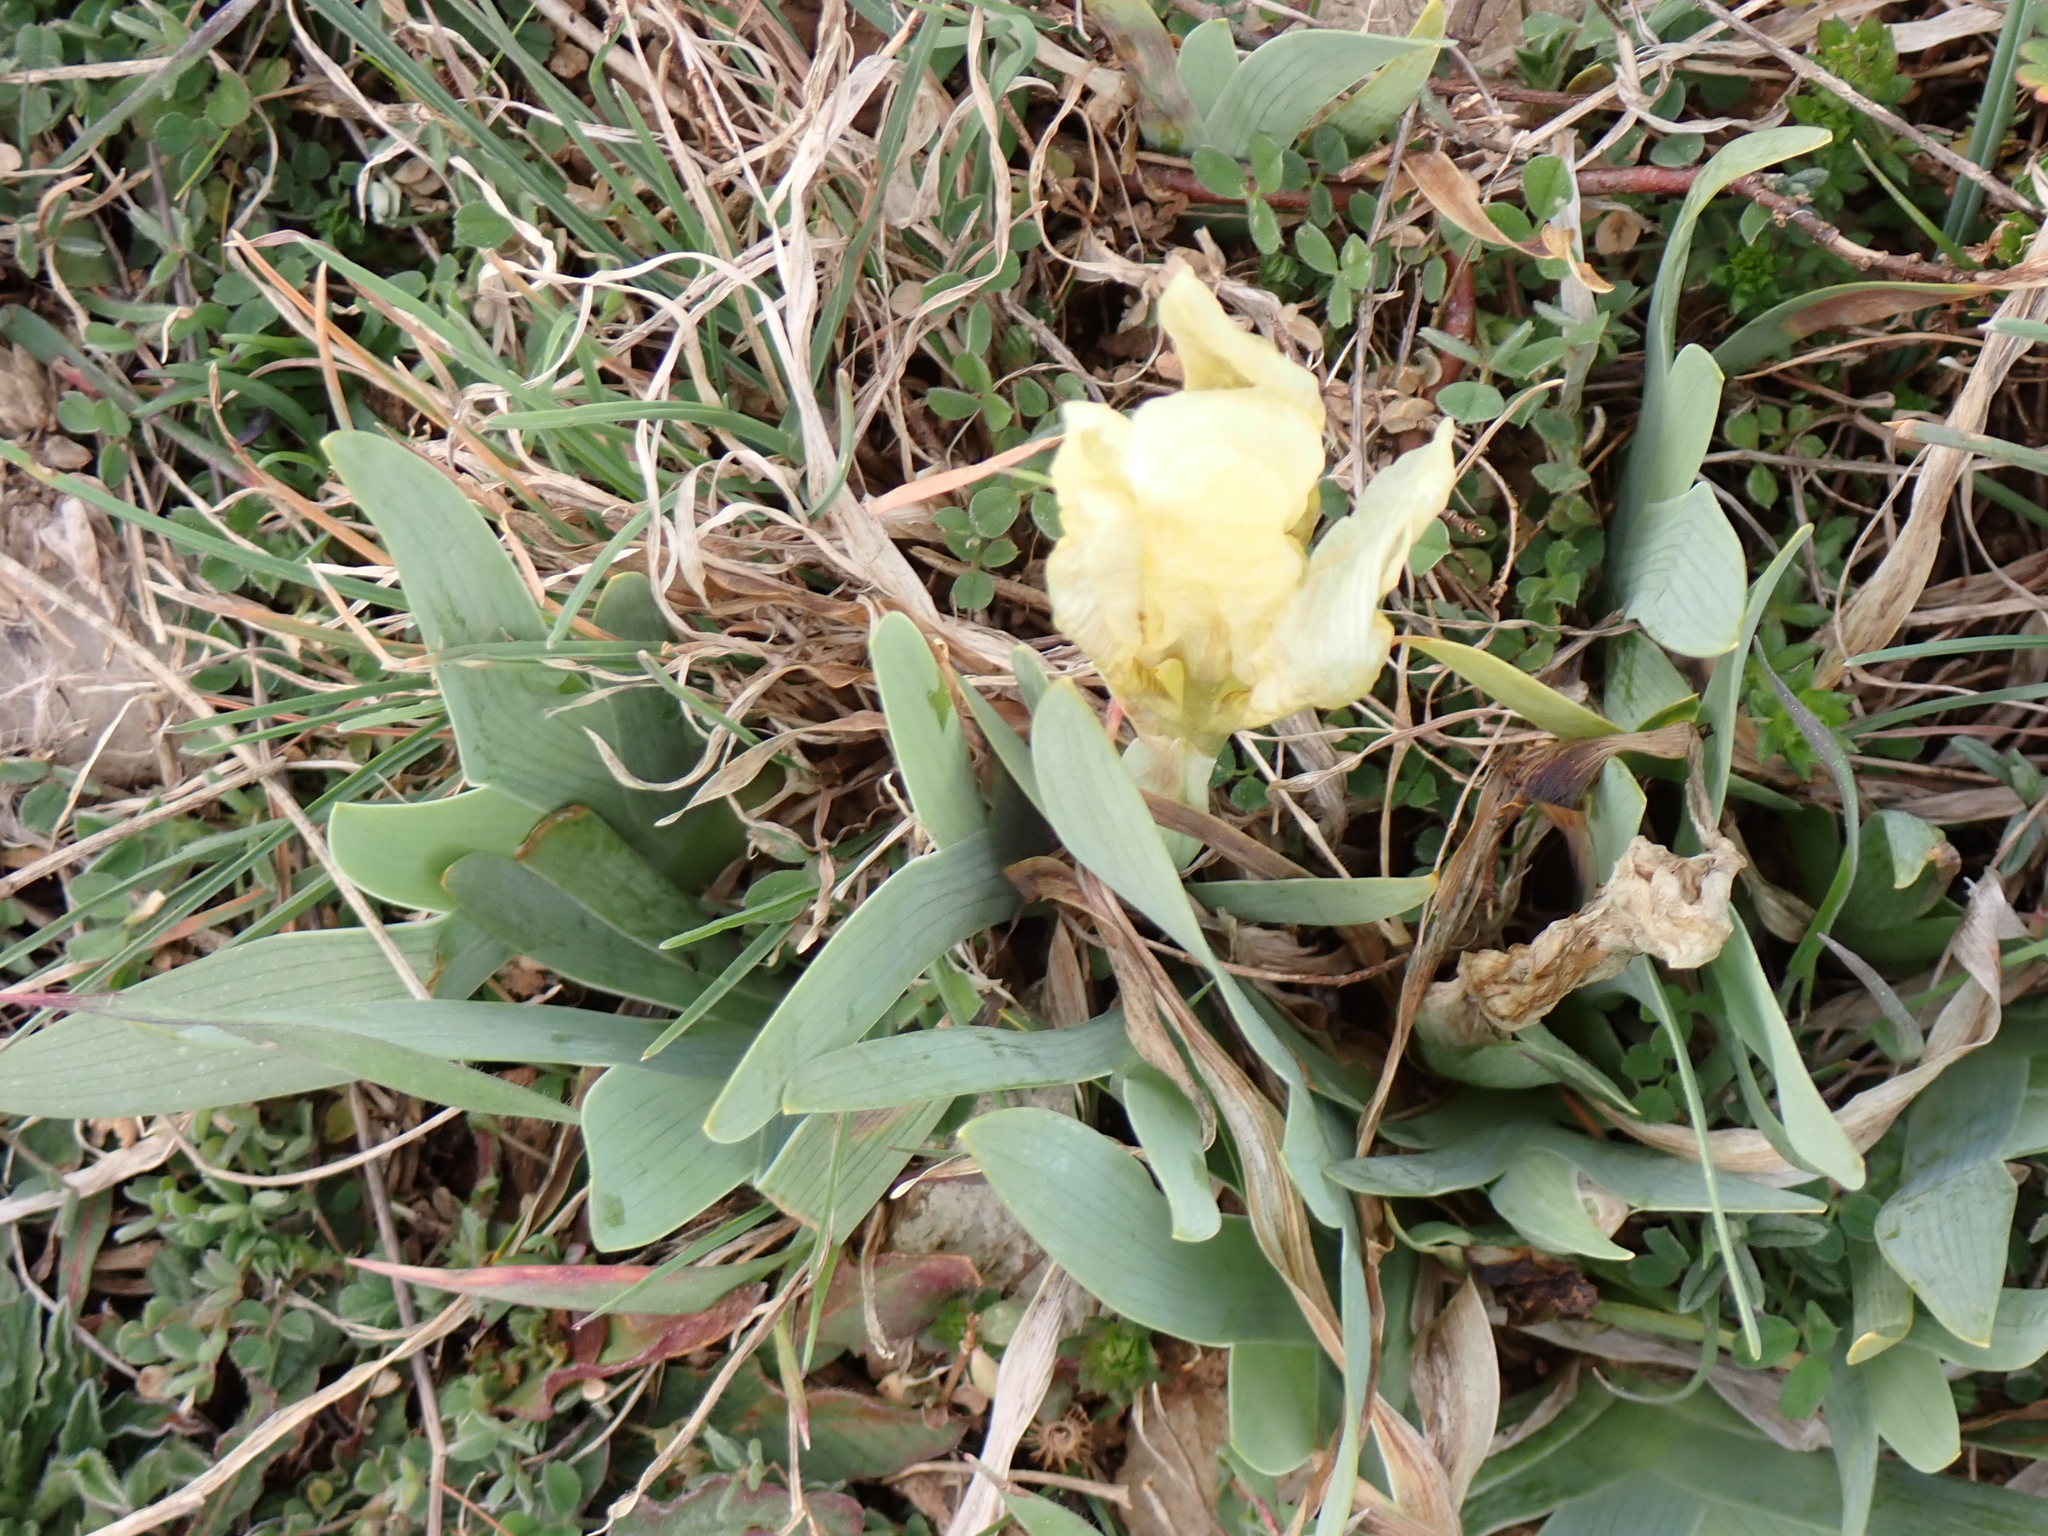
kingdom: Plantae
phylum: Tracheophyta
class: Liliopsida
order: Asparagales
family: Iridaceae
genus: Iris
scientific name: Iris lutescens
